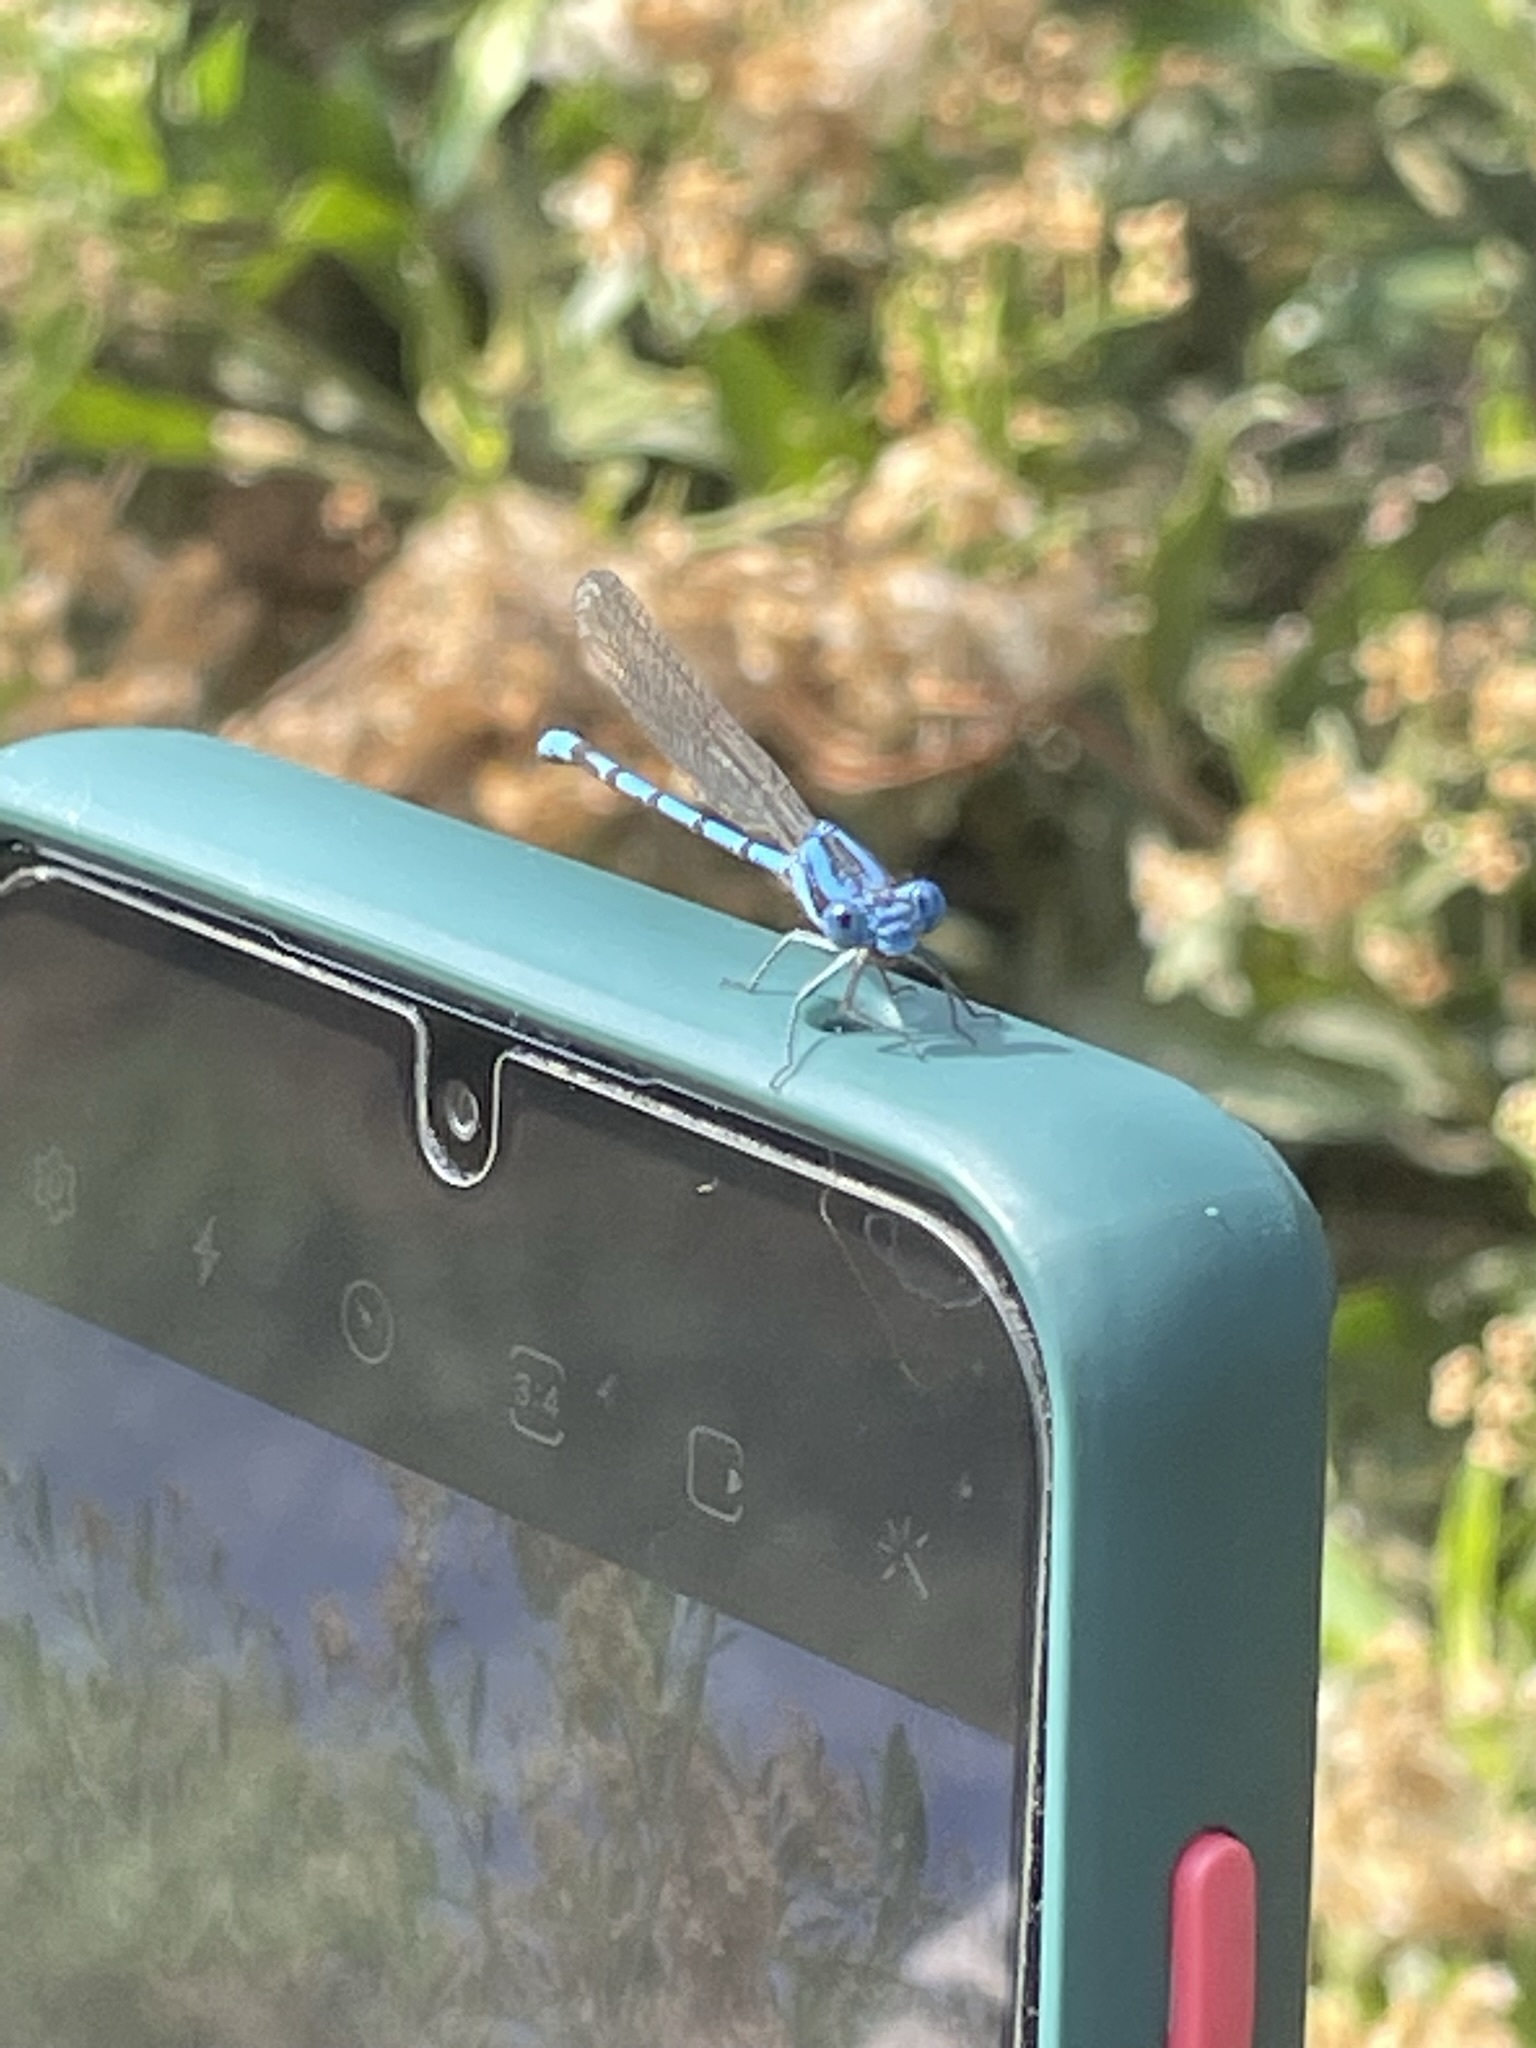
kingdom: Animalia
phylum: Arthropoda
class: Insecta
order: Odonata
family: Coenagrionidae
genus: Argia
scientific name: Argia inculta
